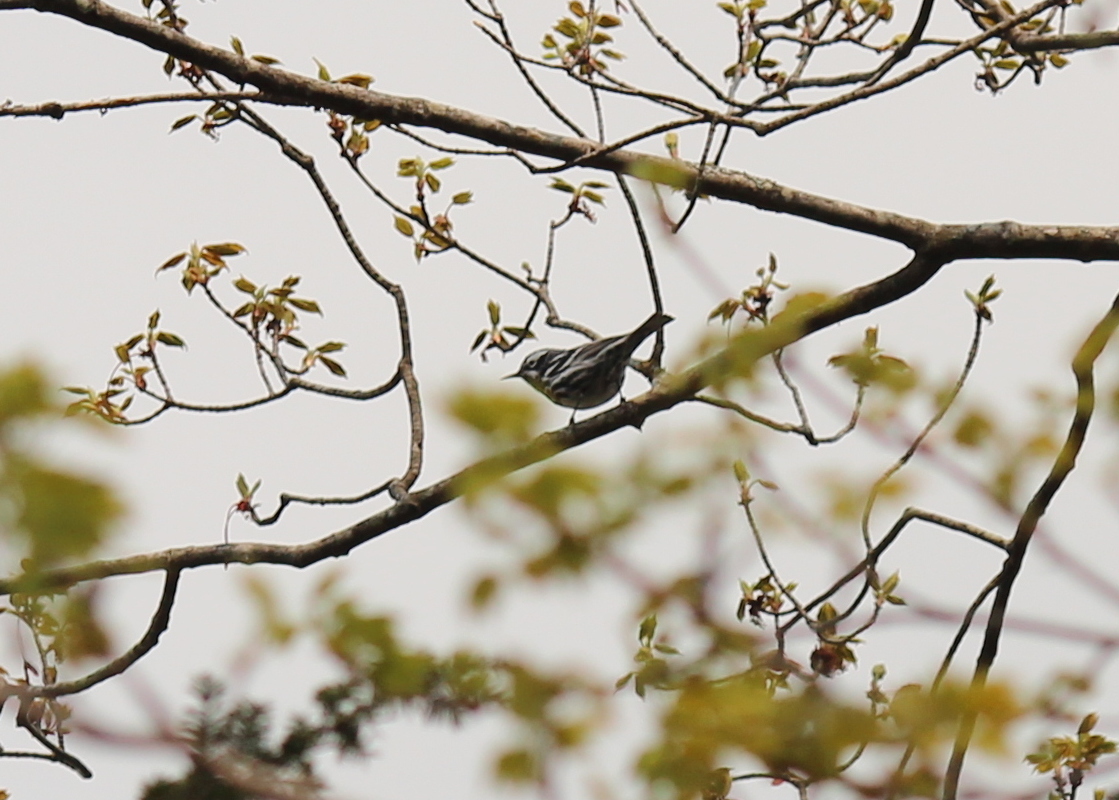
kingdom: Animalia
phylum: Chordata
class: Aves
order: Passeriformes
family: Parulidae
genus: Mniotilta
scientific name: Mniotilta varia
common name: Black-and-white warbler
